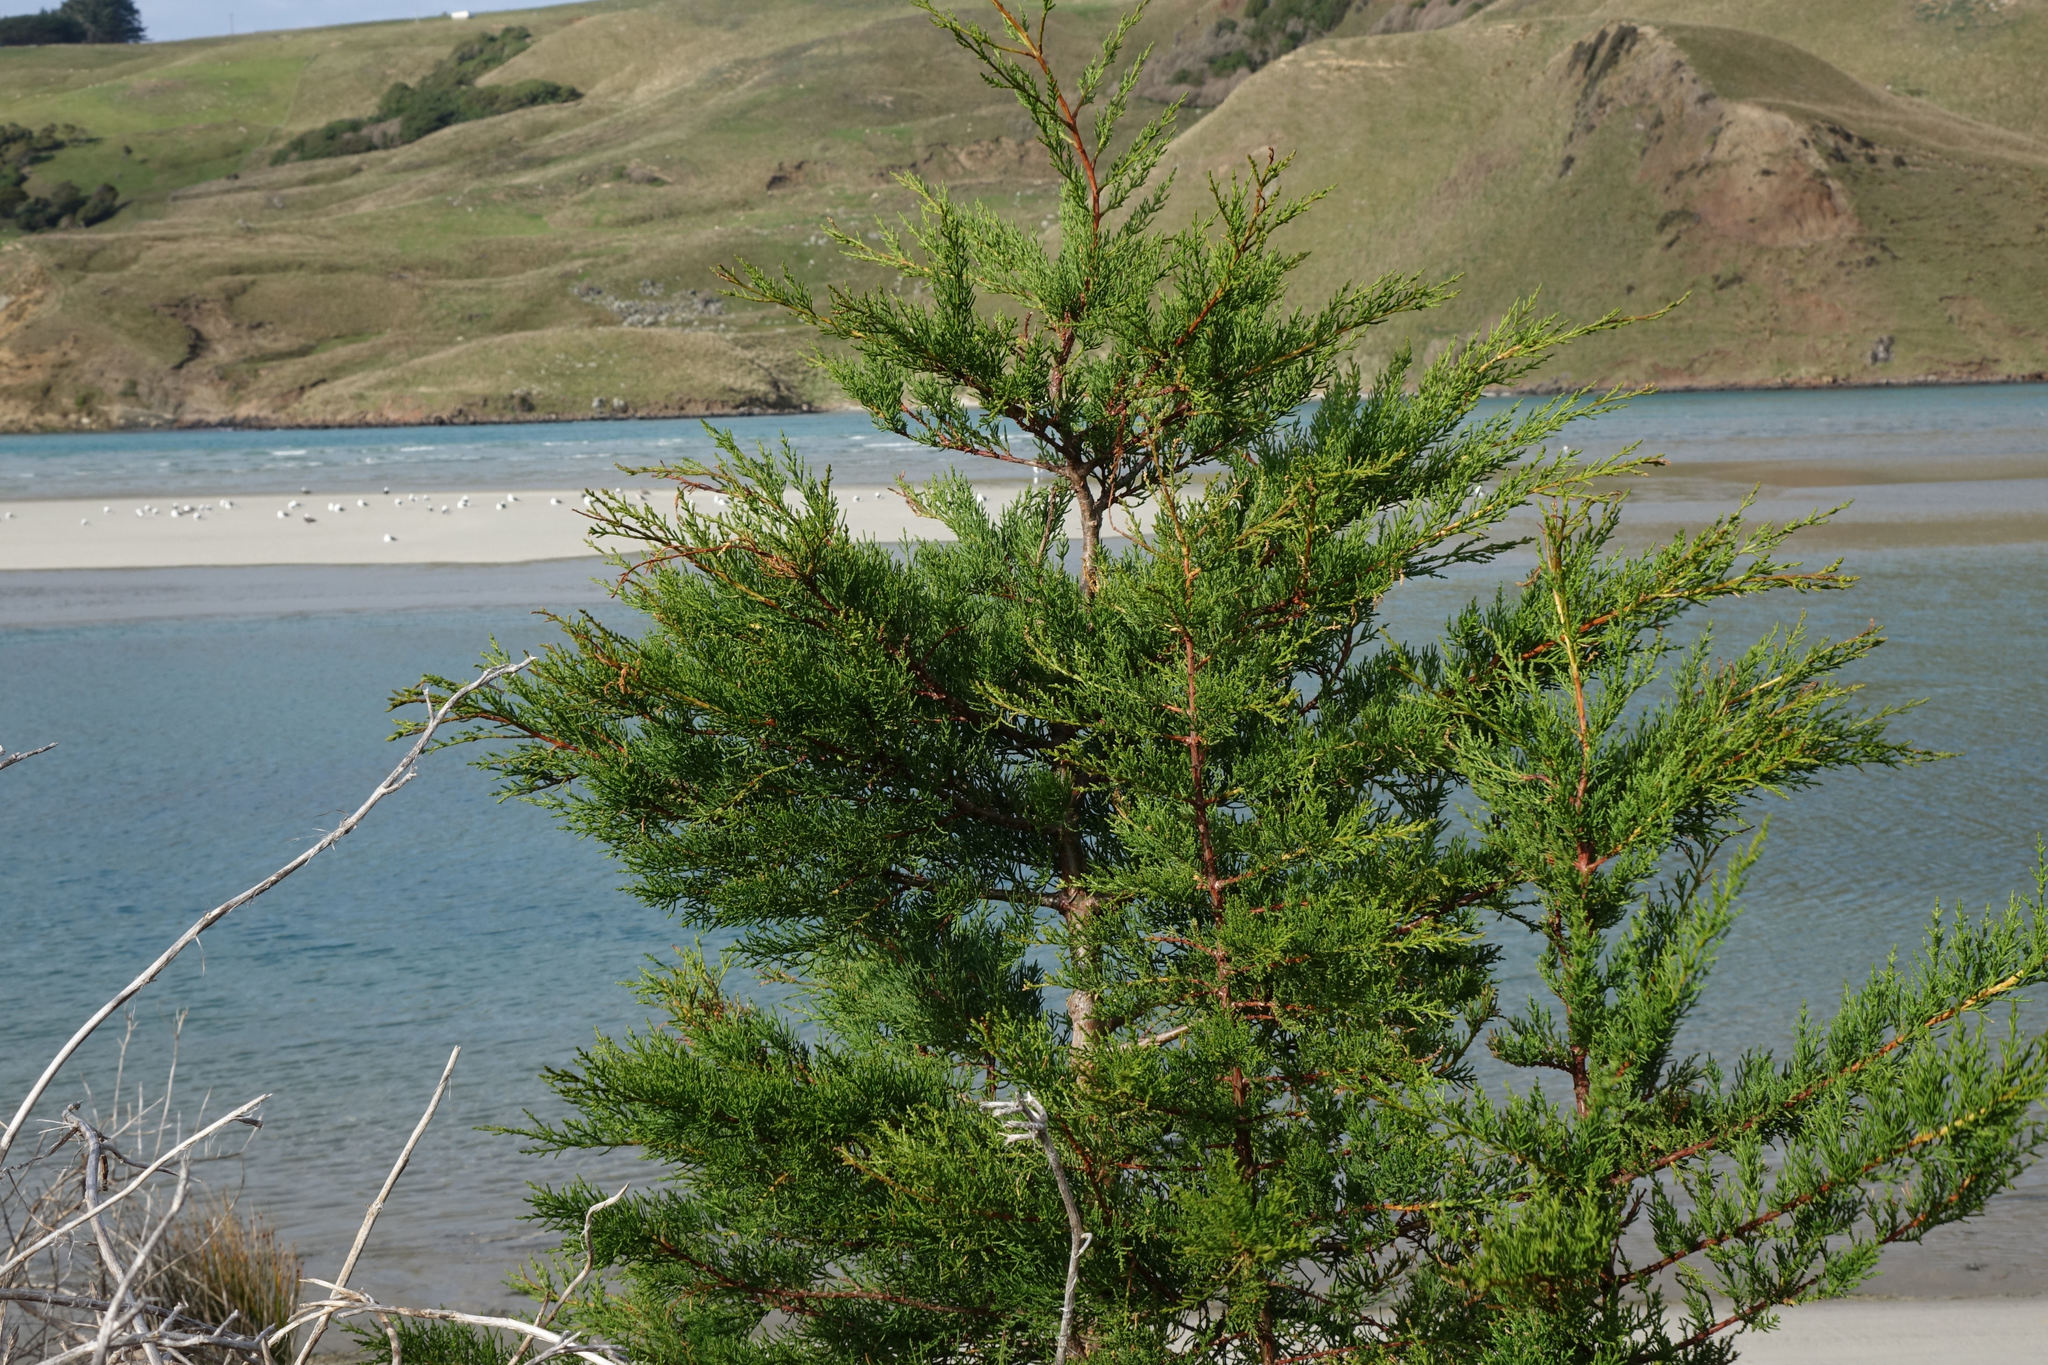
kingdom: Plantae
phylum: Tracheophyta
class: Pinopsida
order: Pinales
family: Cupressaceae
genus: Cupressus
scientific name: Cupressus macrocarpa
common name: Monterey cypress
